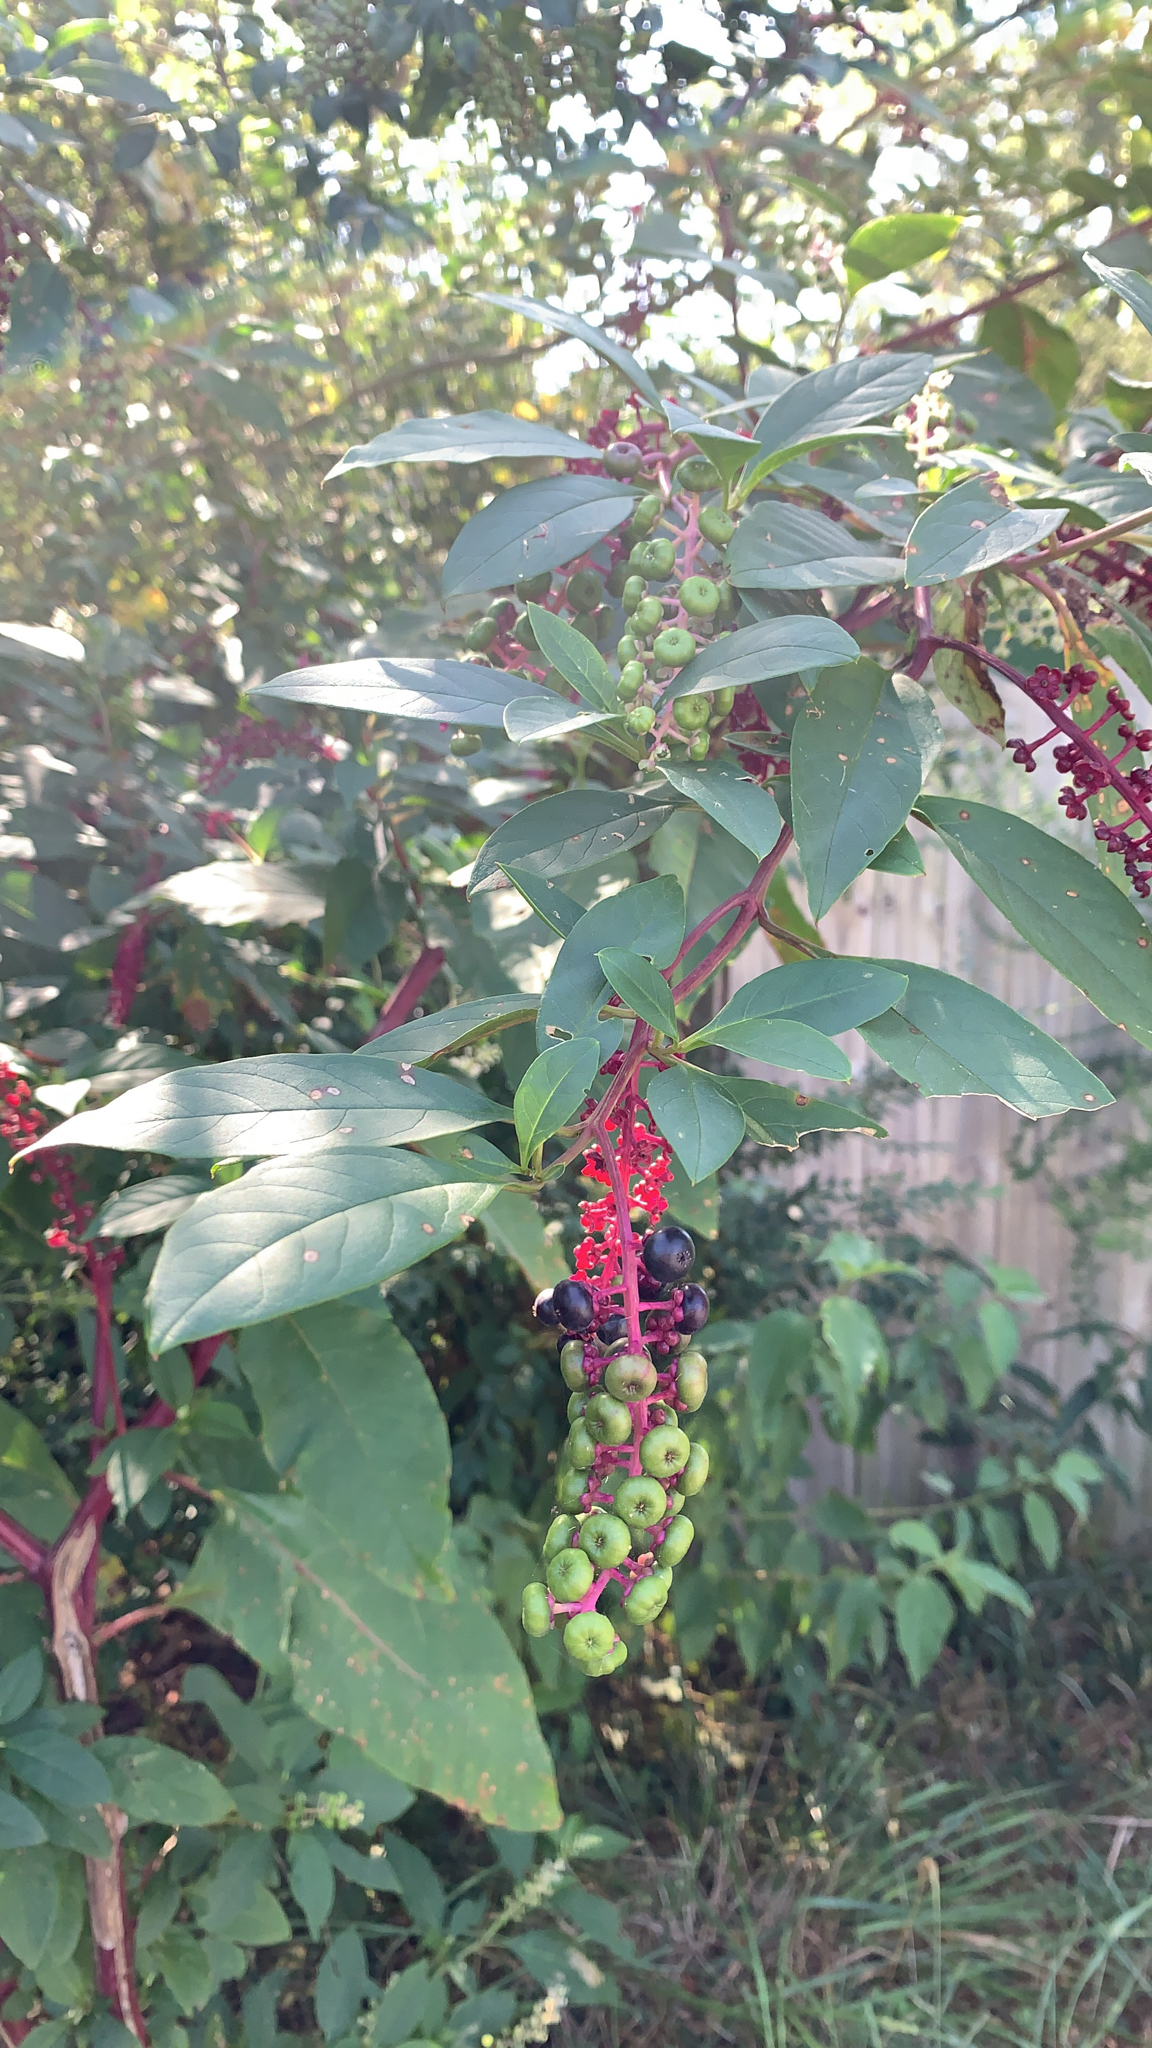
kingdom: Plantae
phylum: Tracheophyta
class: Magnoliopsida
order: Caryophyllales
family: Phytolaccaceae
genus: Phytolacca
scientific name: Phytolacca americana
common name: American pokeweed
